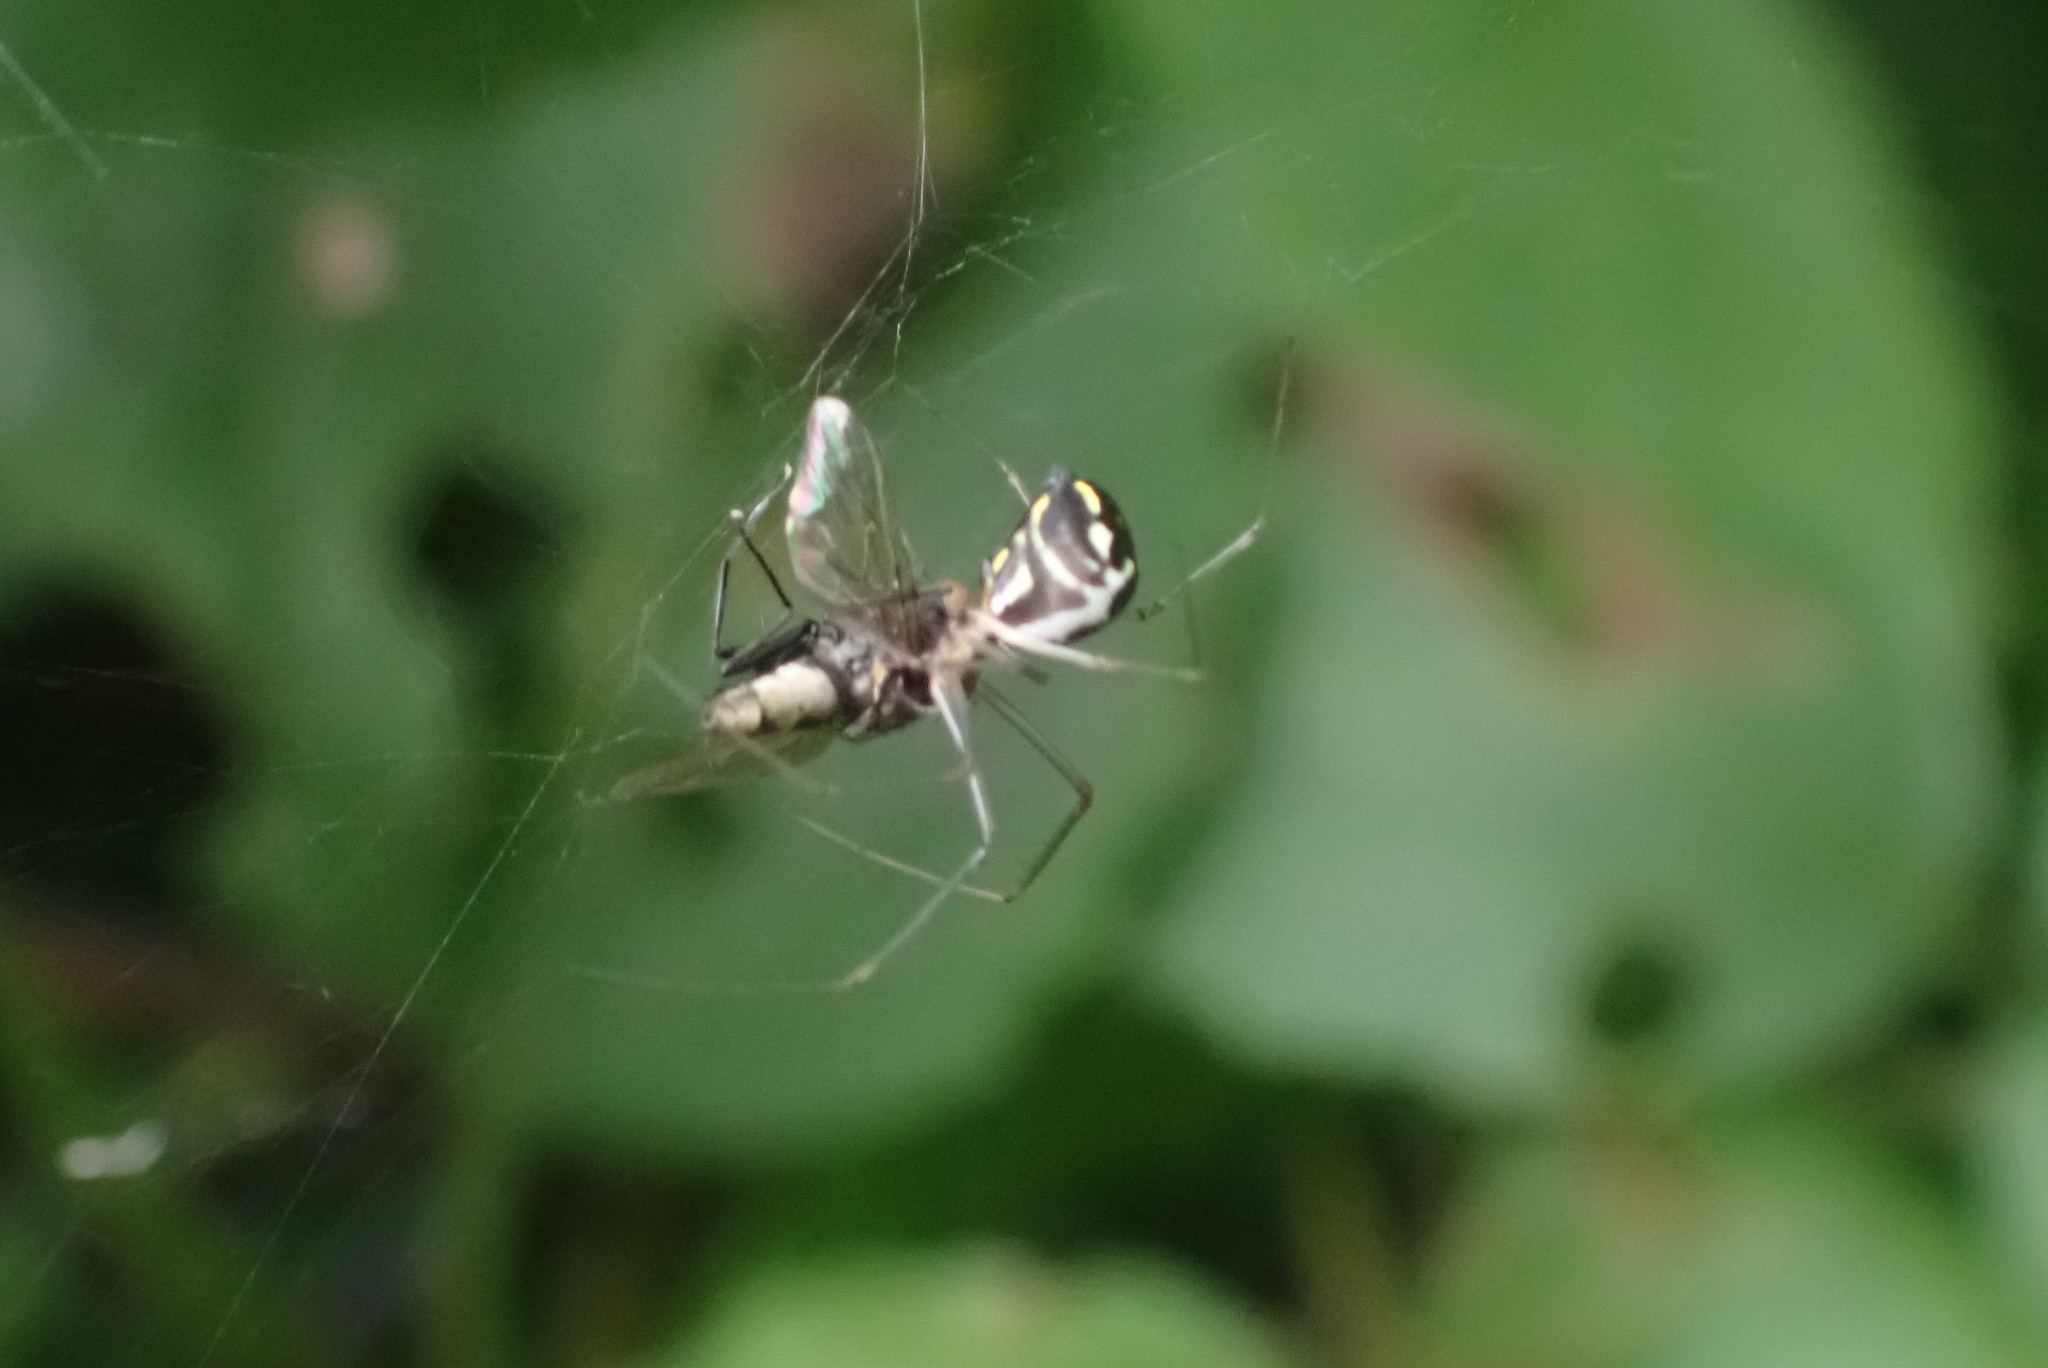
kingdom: Animalia
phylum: Arthropoda
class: Arachnida
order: Araneae
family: Linyphiidae
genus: Neriene
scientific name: Neriene radiata
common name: Filmy dome spider
